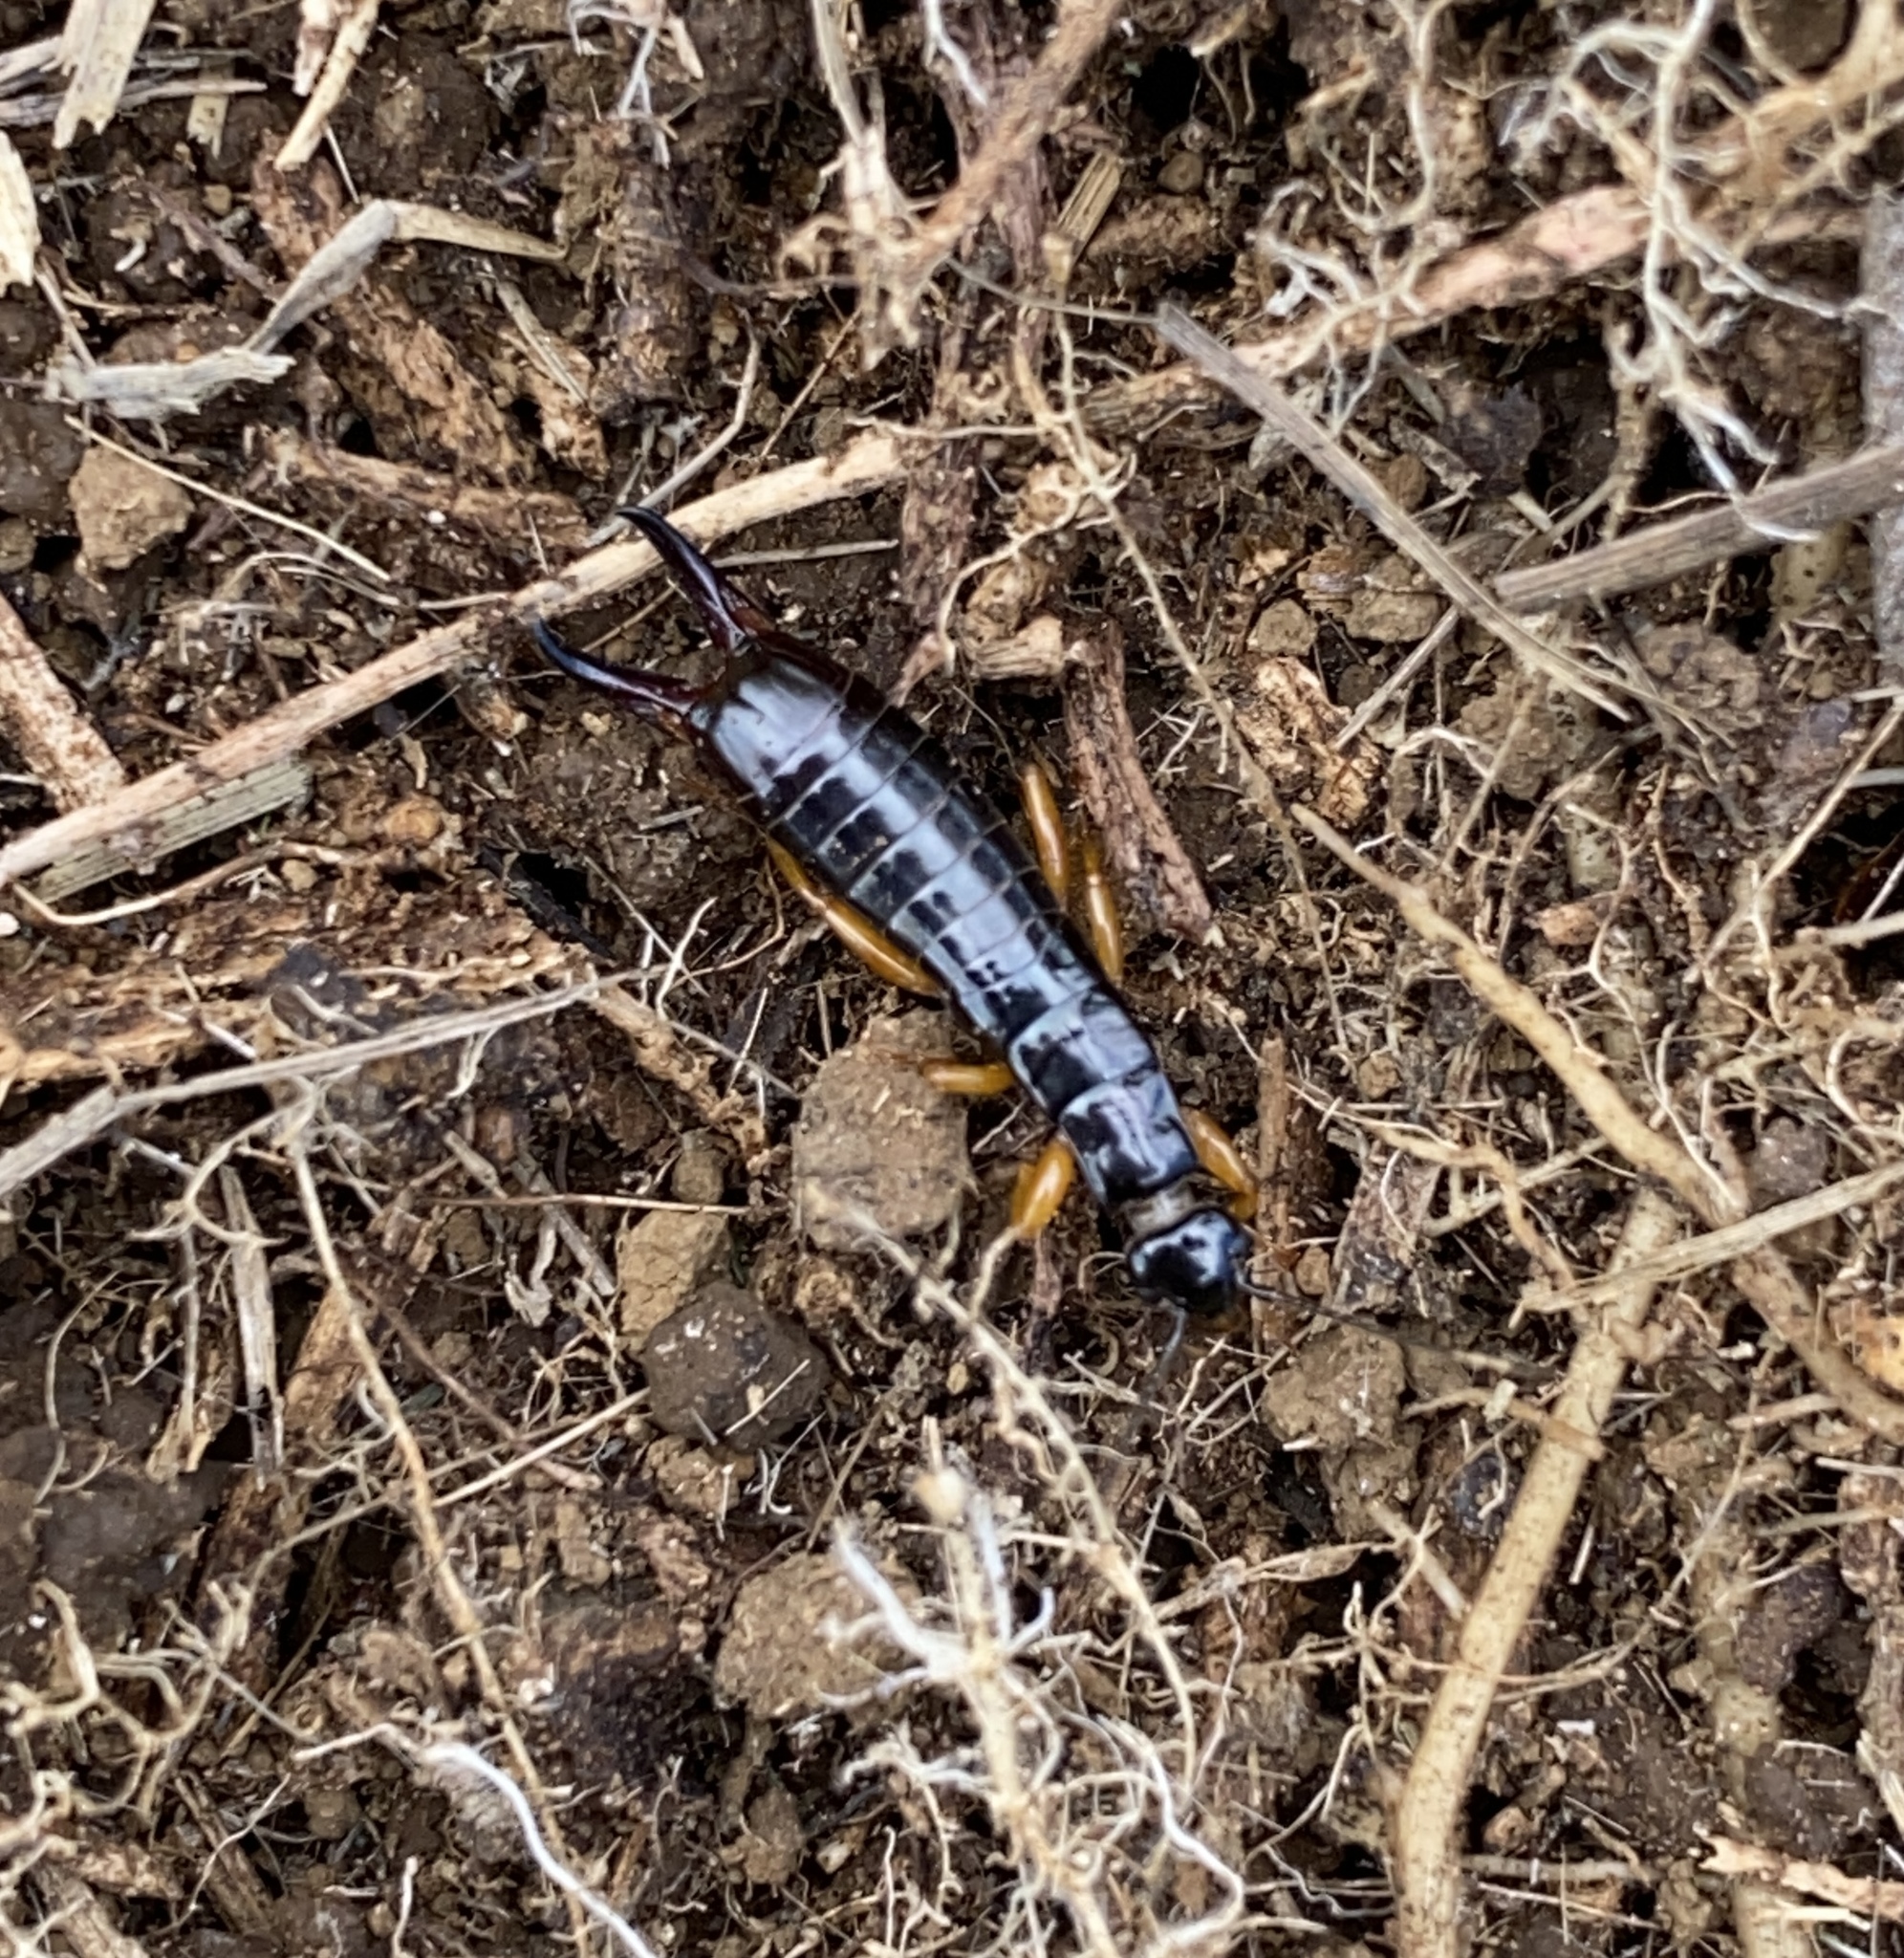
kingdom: Animalia
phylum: Arthropoda
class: Insecta
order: Dermaptera
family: Anisolabididae
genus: Euborellia
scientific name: Euborellia eteronoma
